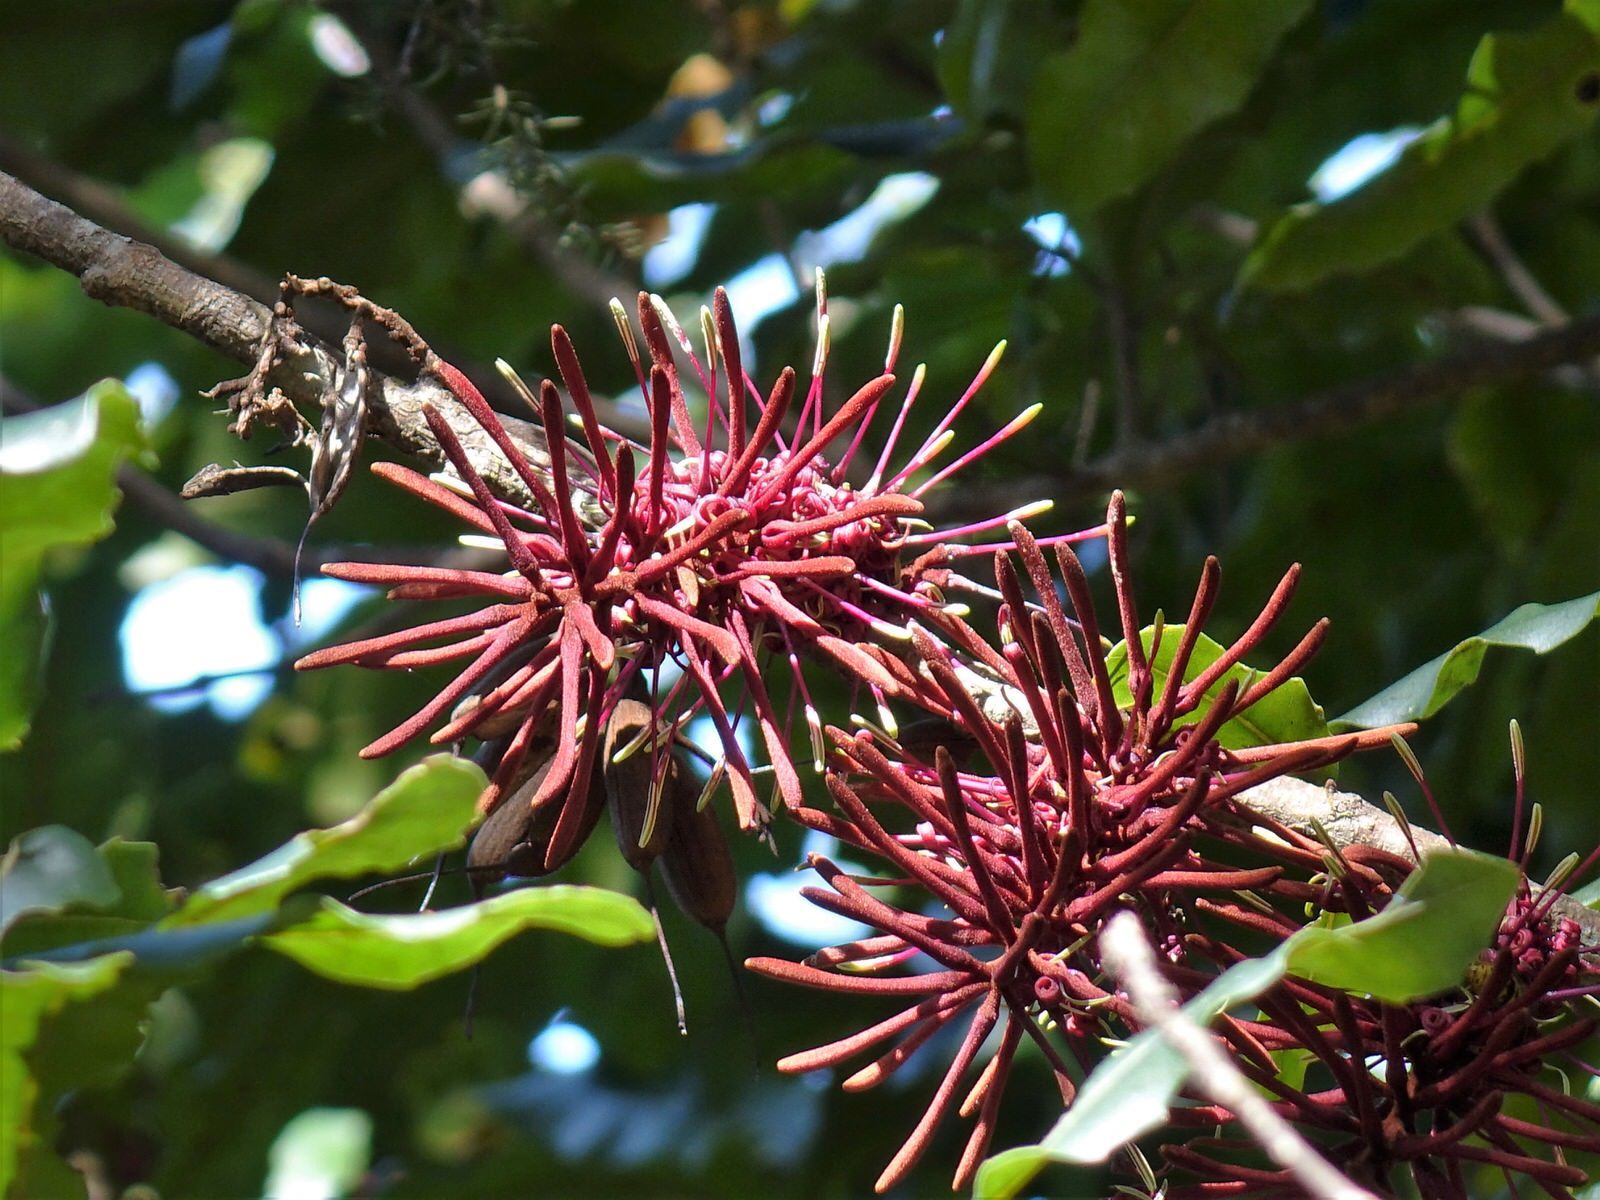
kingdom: Plantae
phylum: Tracheophyta
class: Magnoliopsida
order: Proteales
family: Proteaceae
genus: Knightia
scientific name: Knightia excelsa
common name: New zealand-honeysuckle
